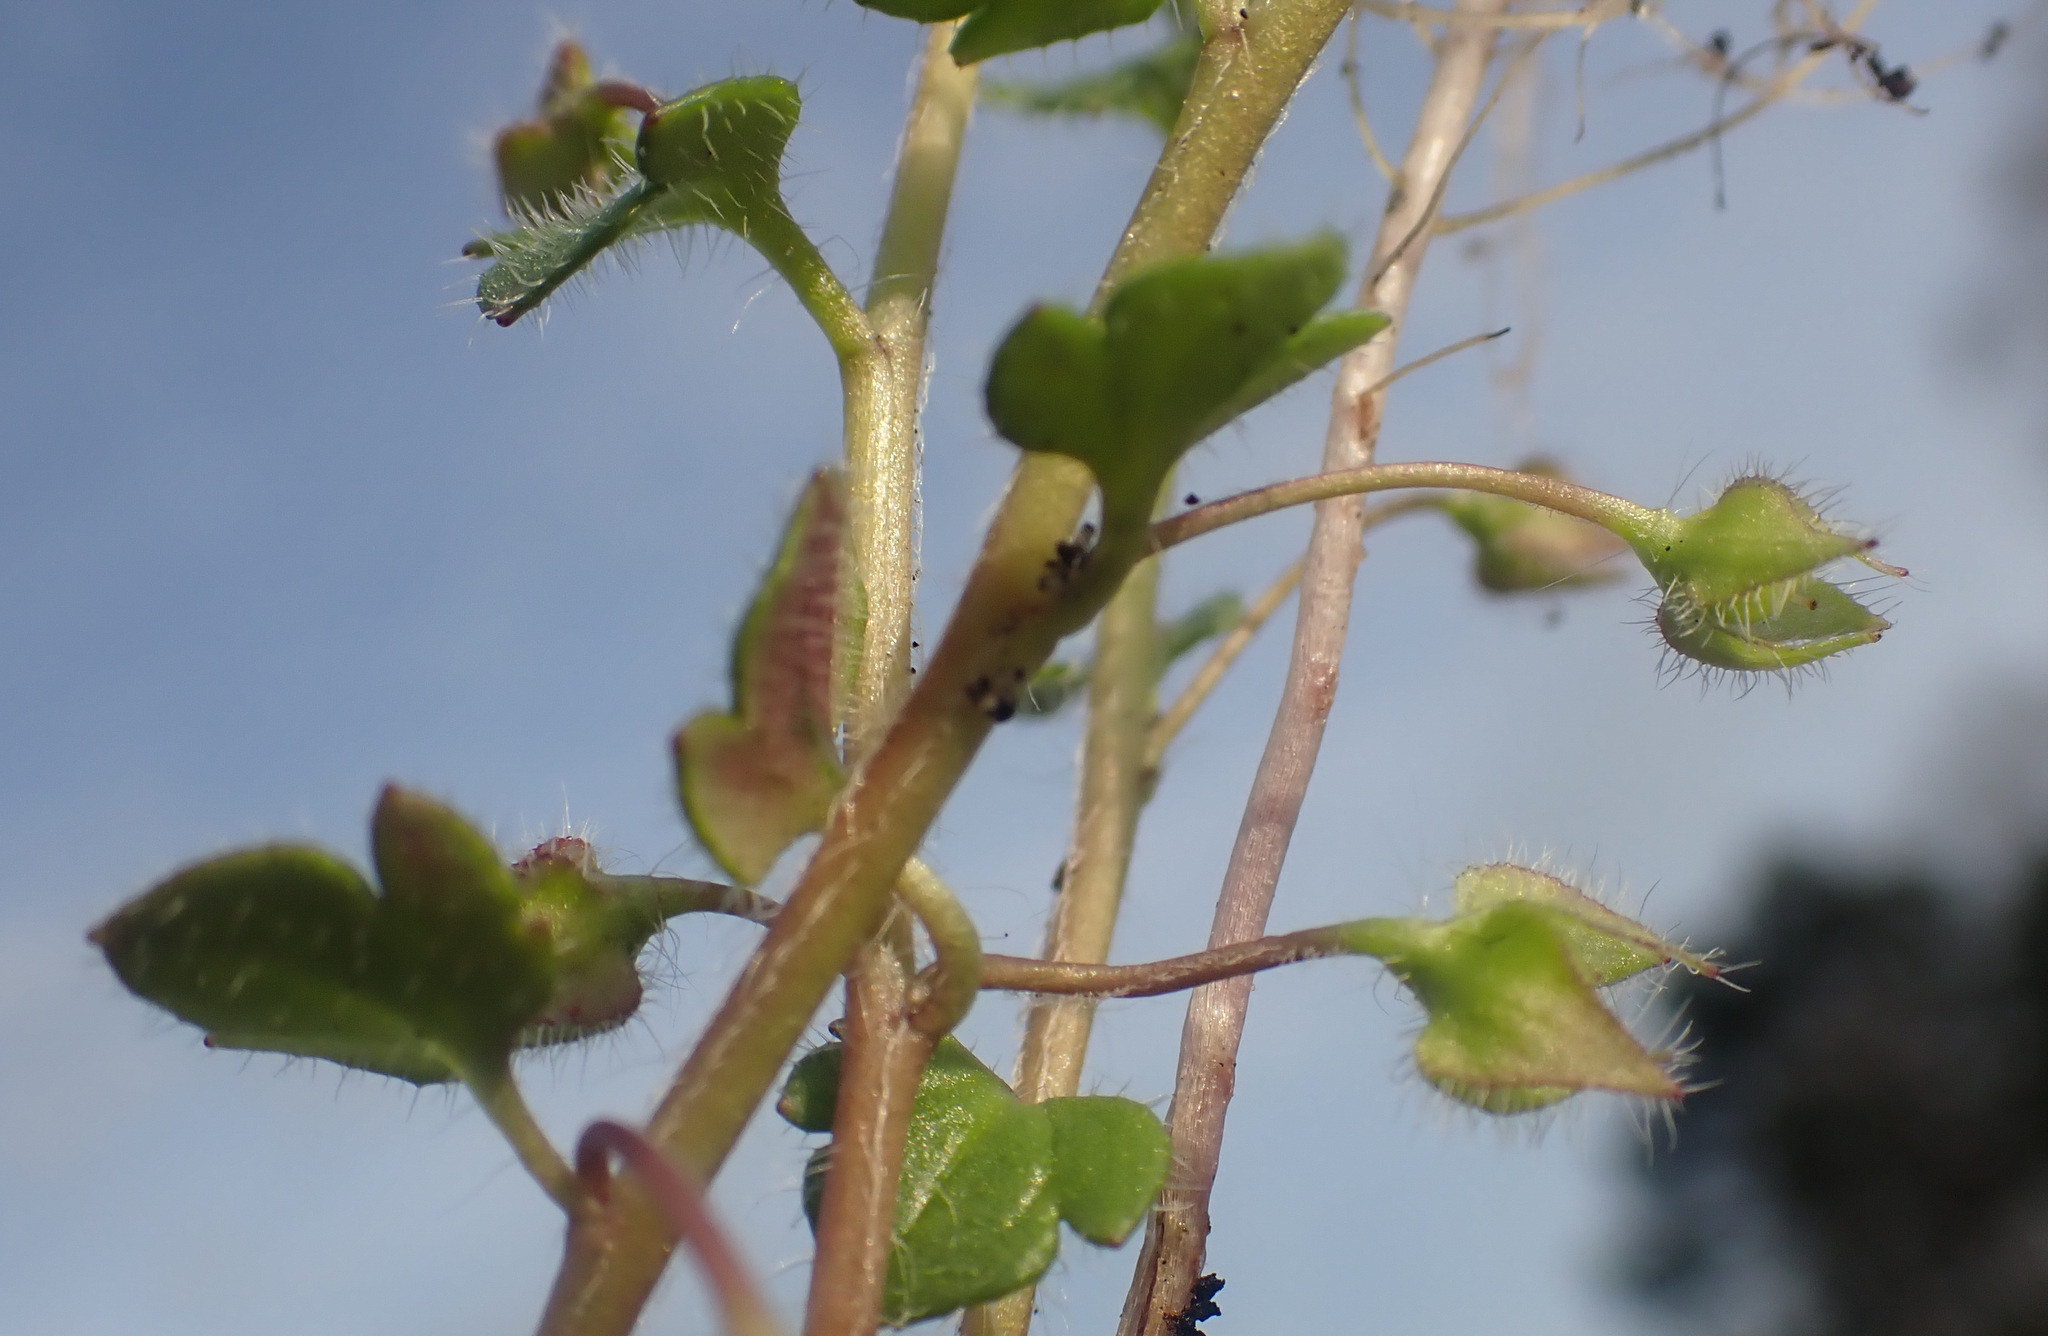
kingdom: Plantae
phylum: Tracheophyta
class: Magnoliopsida
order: Lamiales
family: Plantaginaceae
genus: Veronica
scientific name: Veronica hederifolia
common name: Ivy-leaved speedwell
